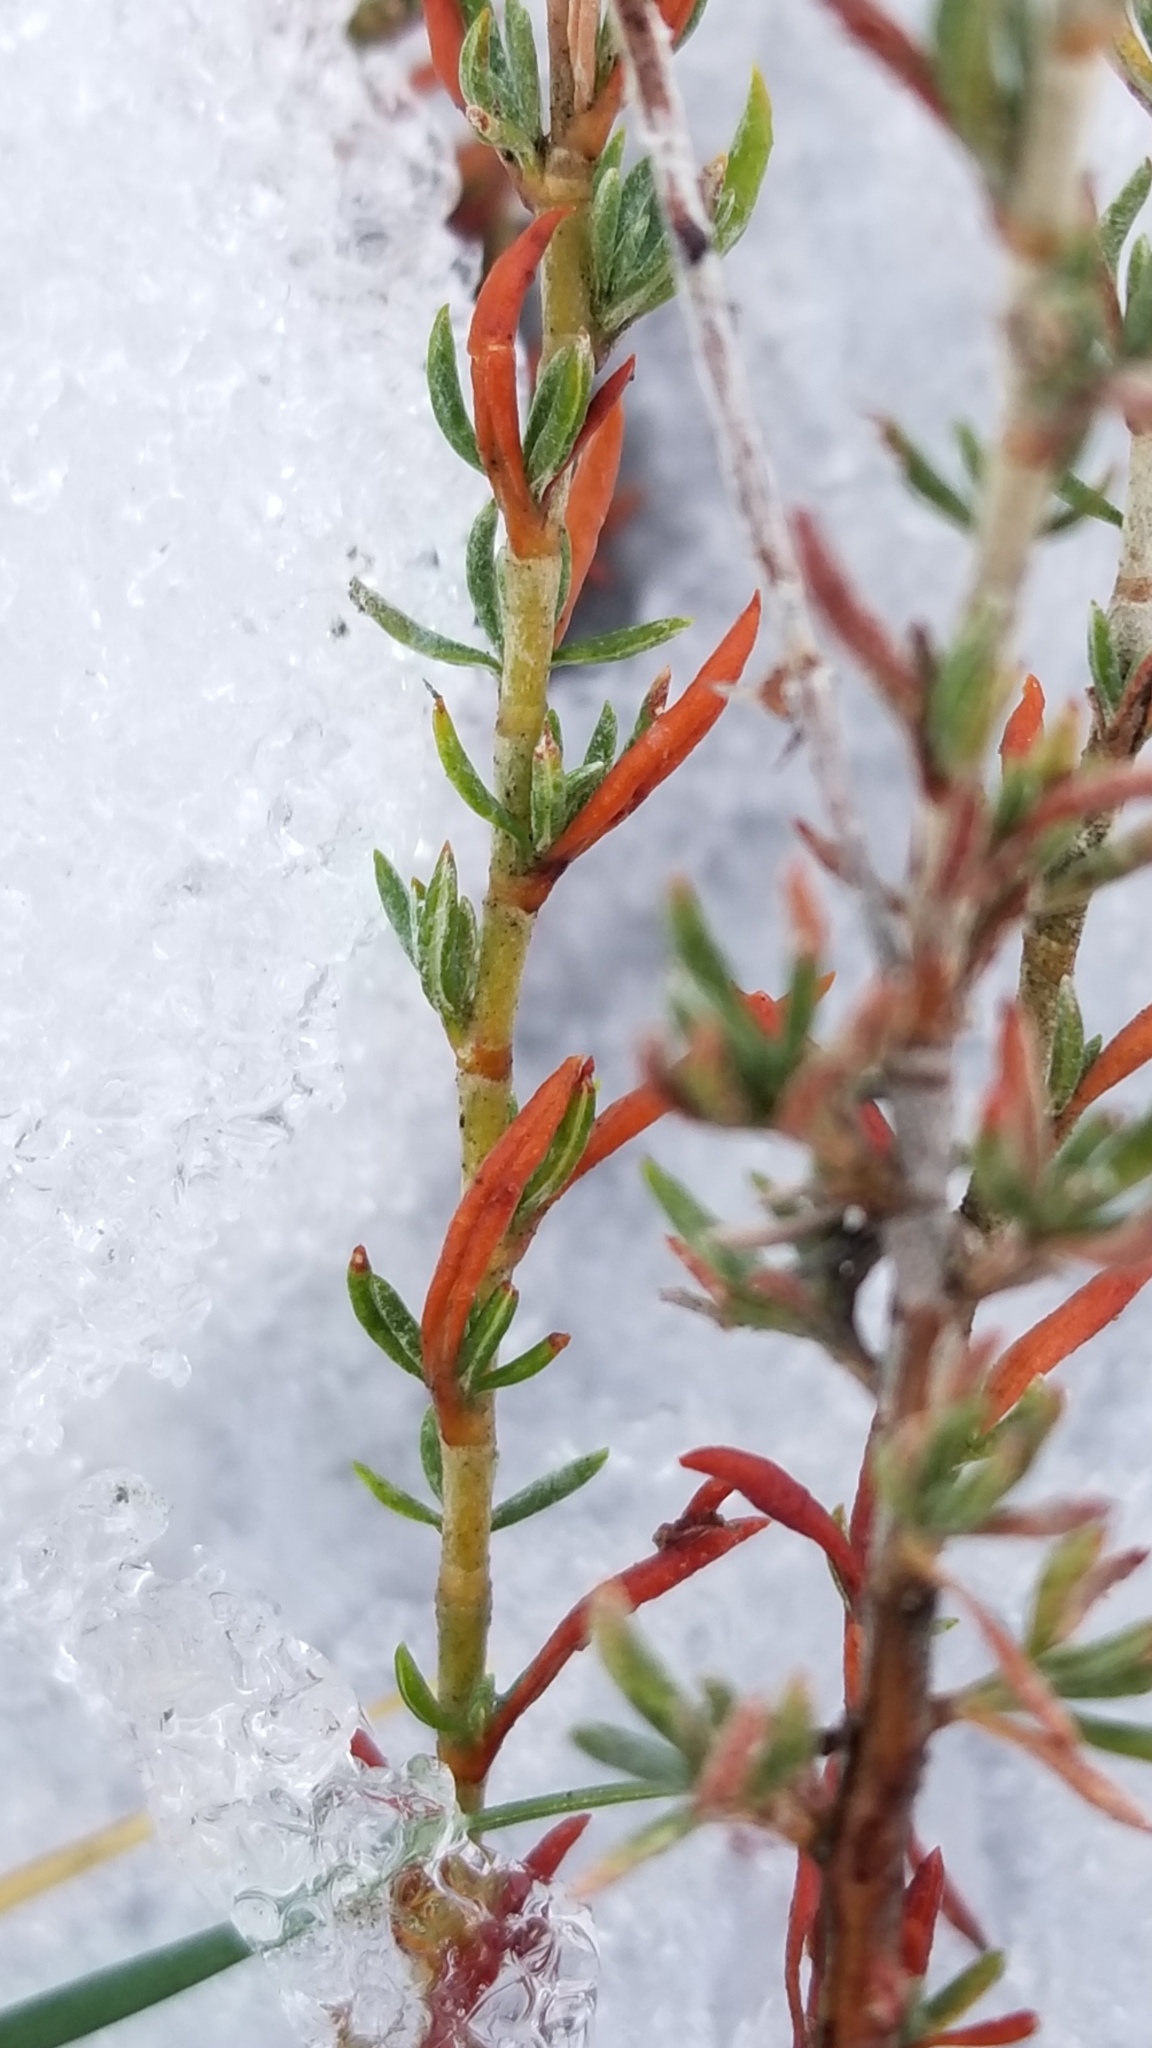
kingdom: Plantae
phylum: Tracheophyta
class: Magnoliopsida
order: Caryophyllales
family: Polygonaceae
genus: Eriogonum
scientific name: Eriogonum wrightii
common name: Bastard-sage
